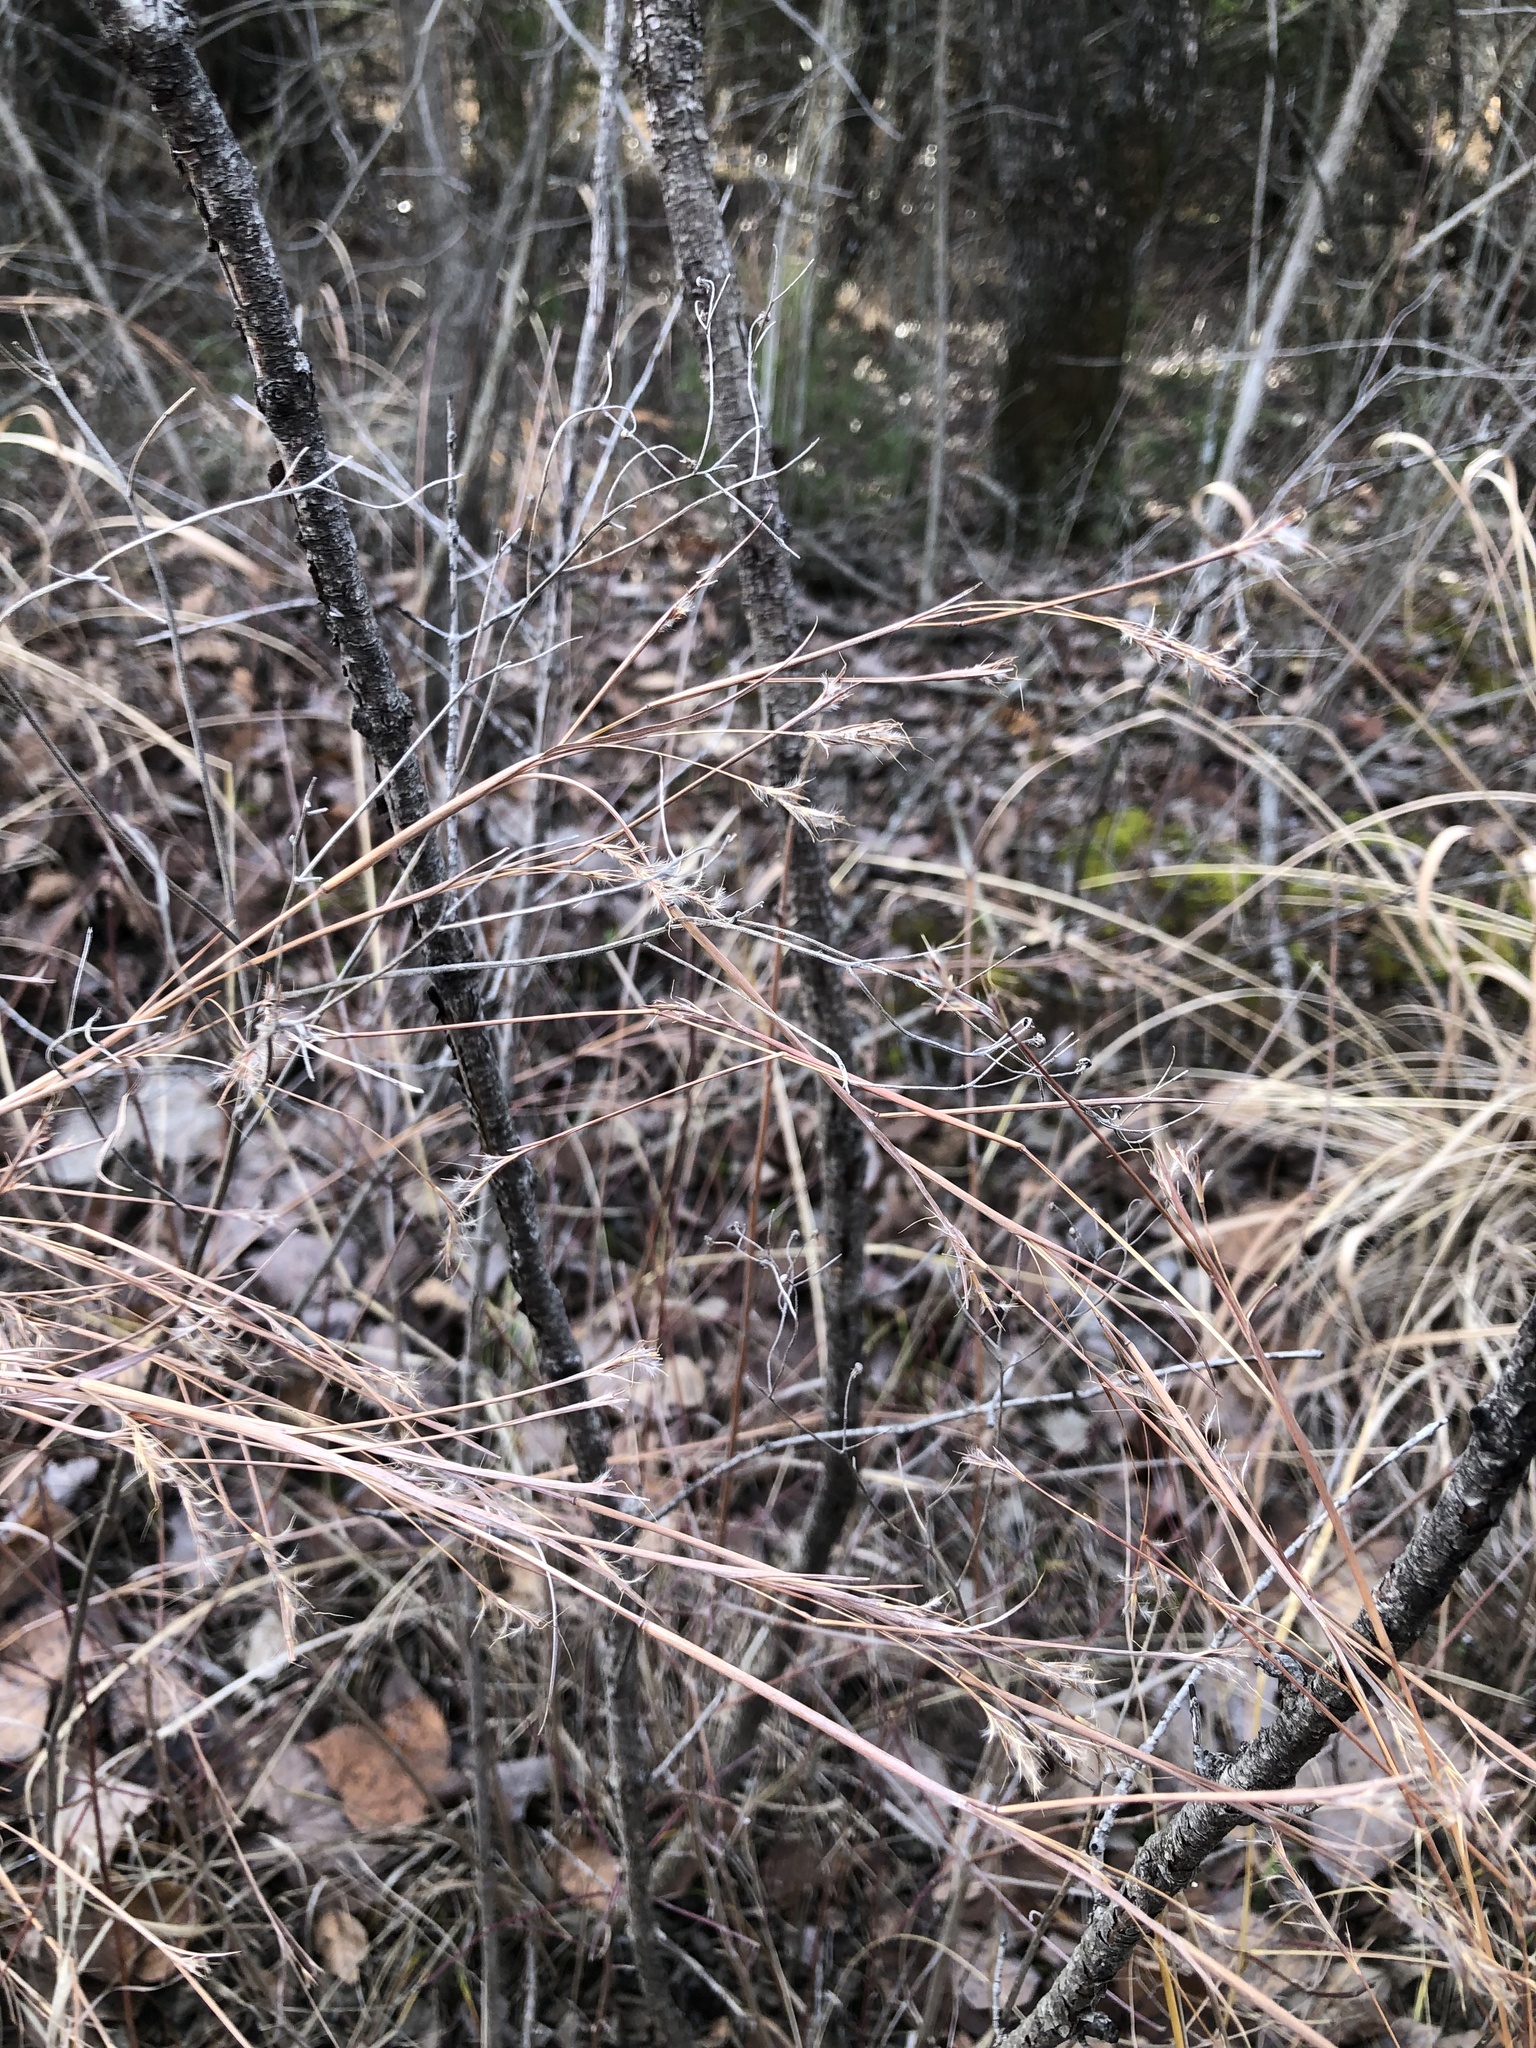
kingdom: Plantae
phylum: Tracheophyta
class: Liliopsida
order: Poales
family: Poaceae
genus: Schizachyrium
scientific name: Schizachyrium scoparium
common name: Little bluestem
